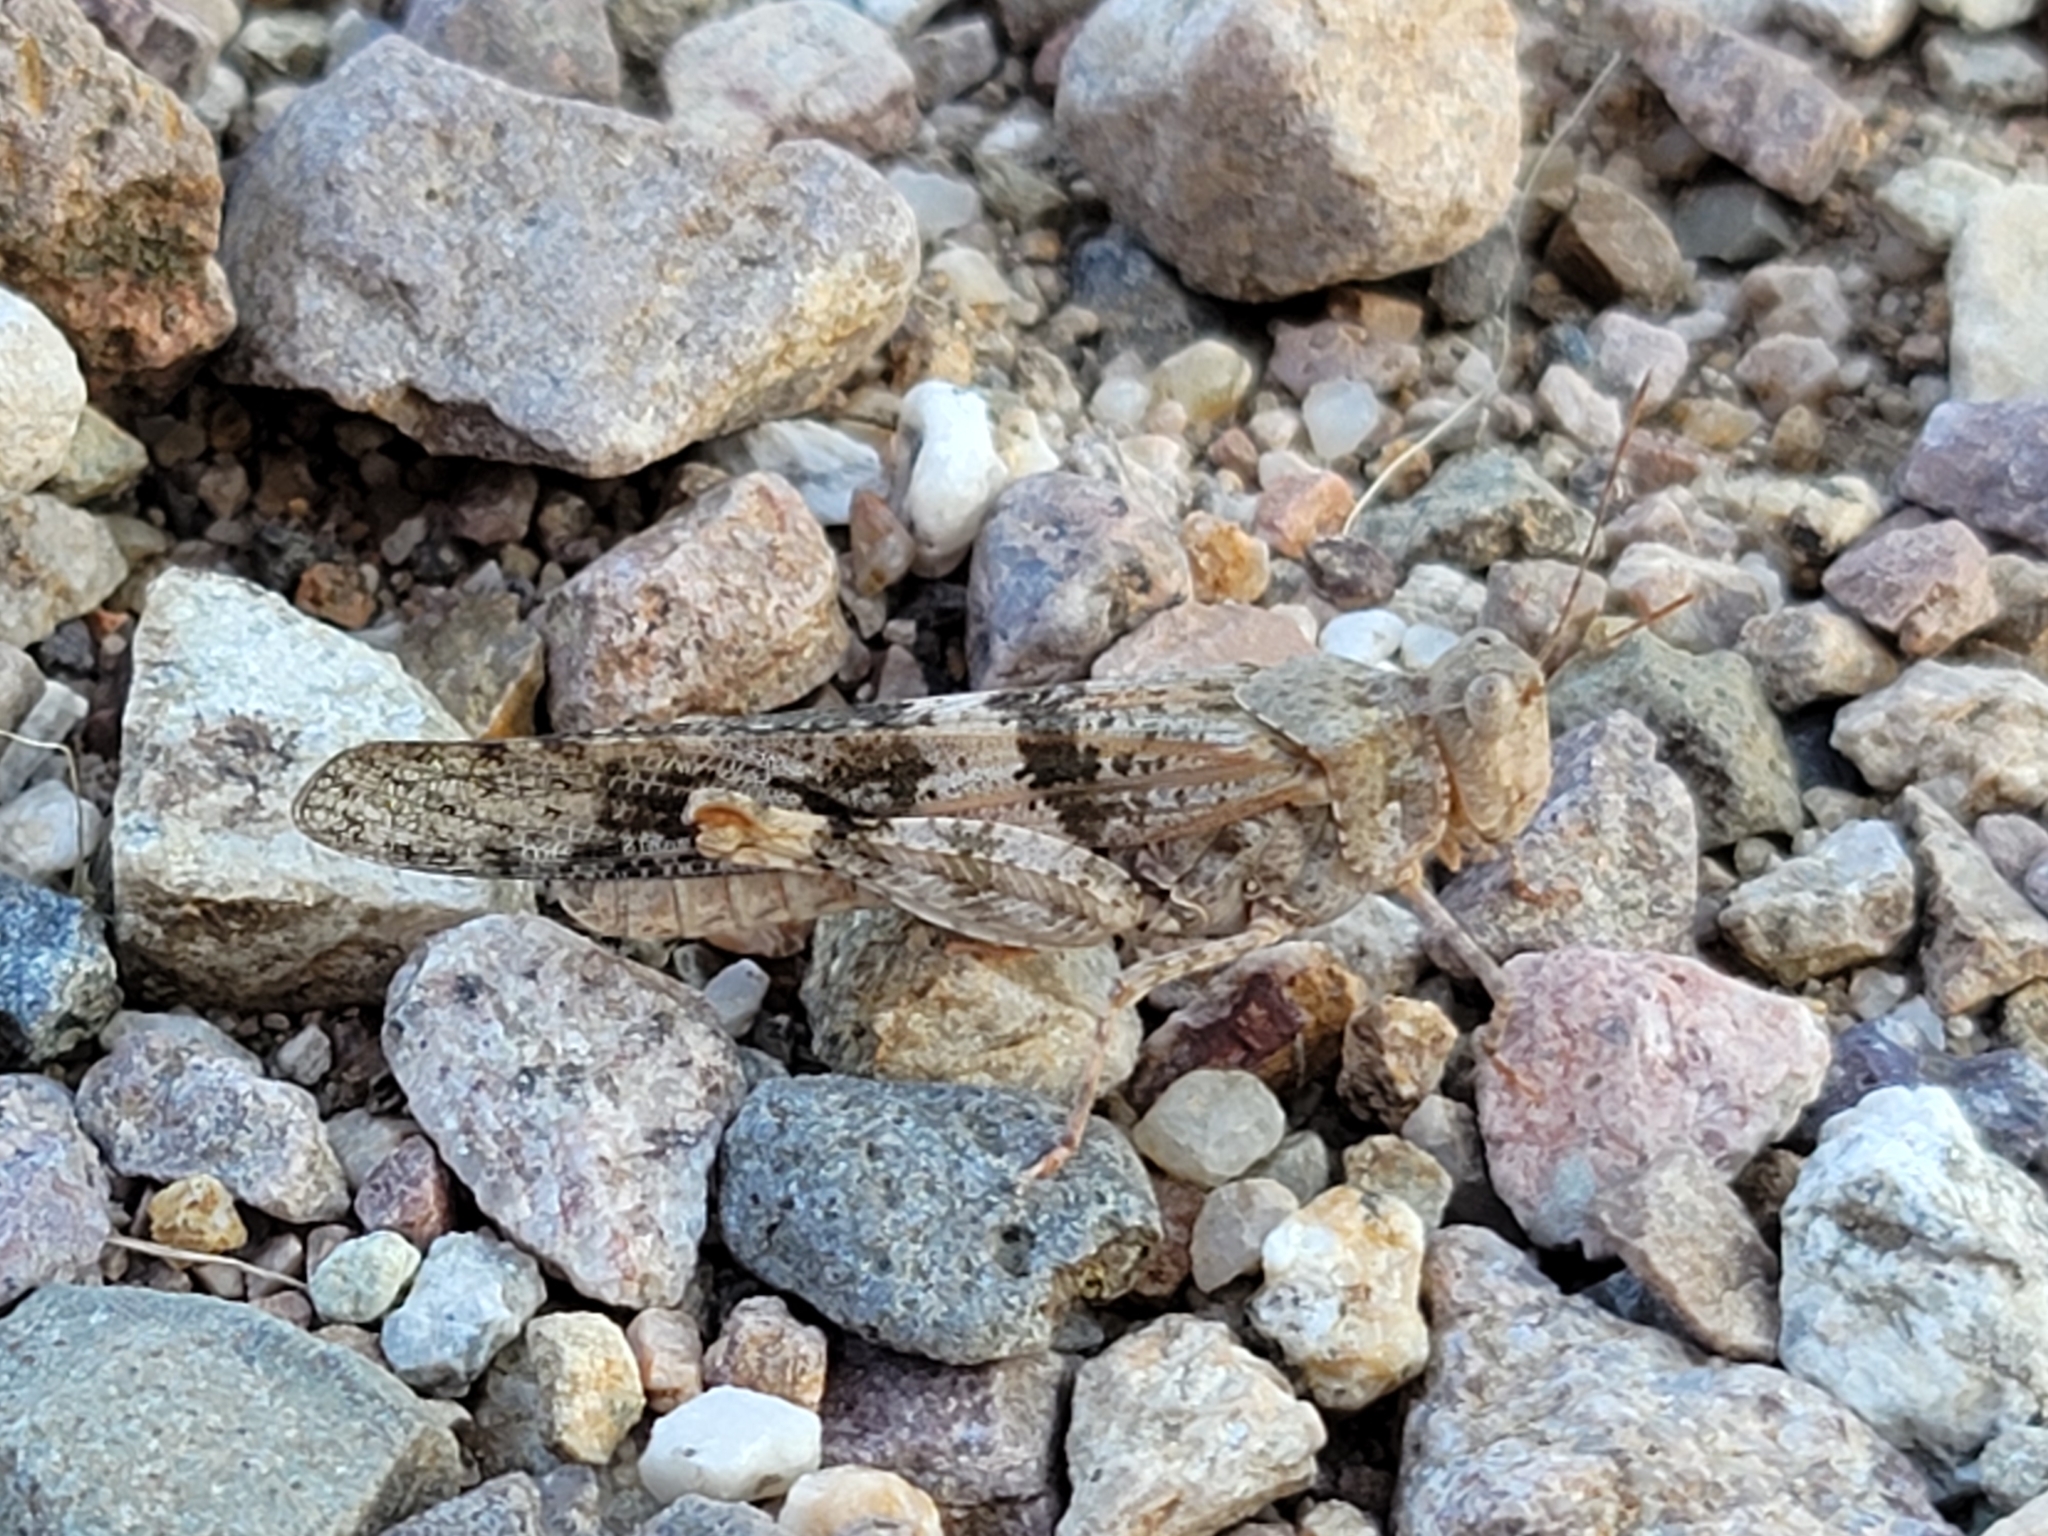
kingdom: Animalia
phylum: Arthropoda
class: Insecta
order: Orthoptera
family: Acrididae
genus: Trimerotropis
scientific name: Trimerotropis pallidipennis
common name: Pallid-winged grasshopper
